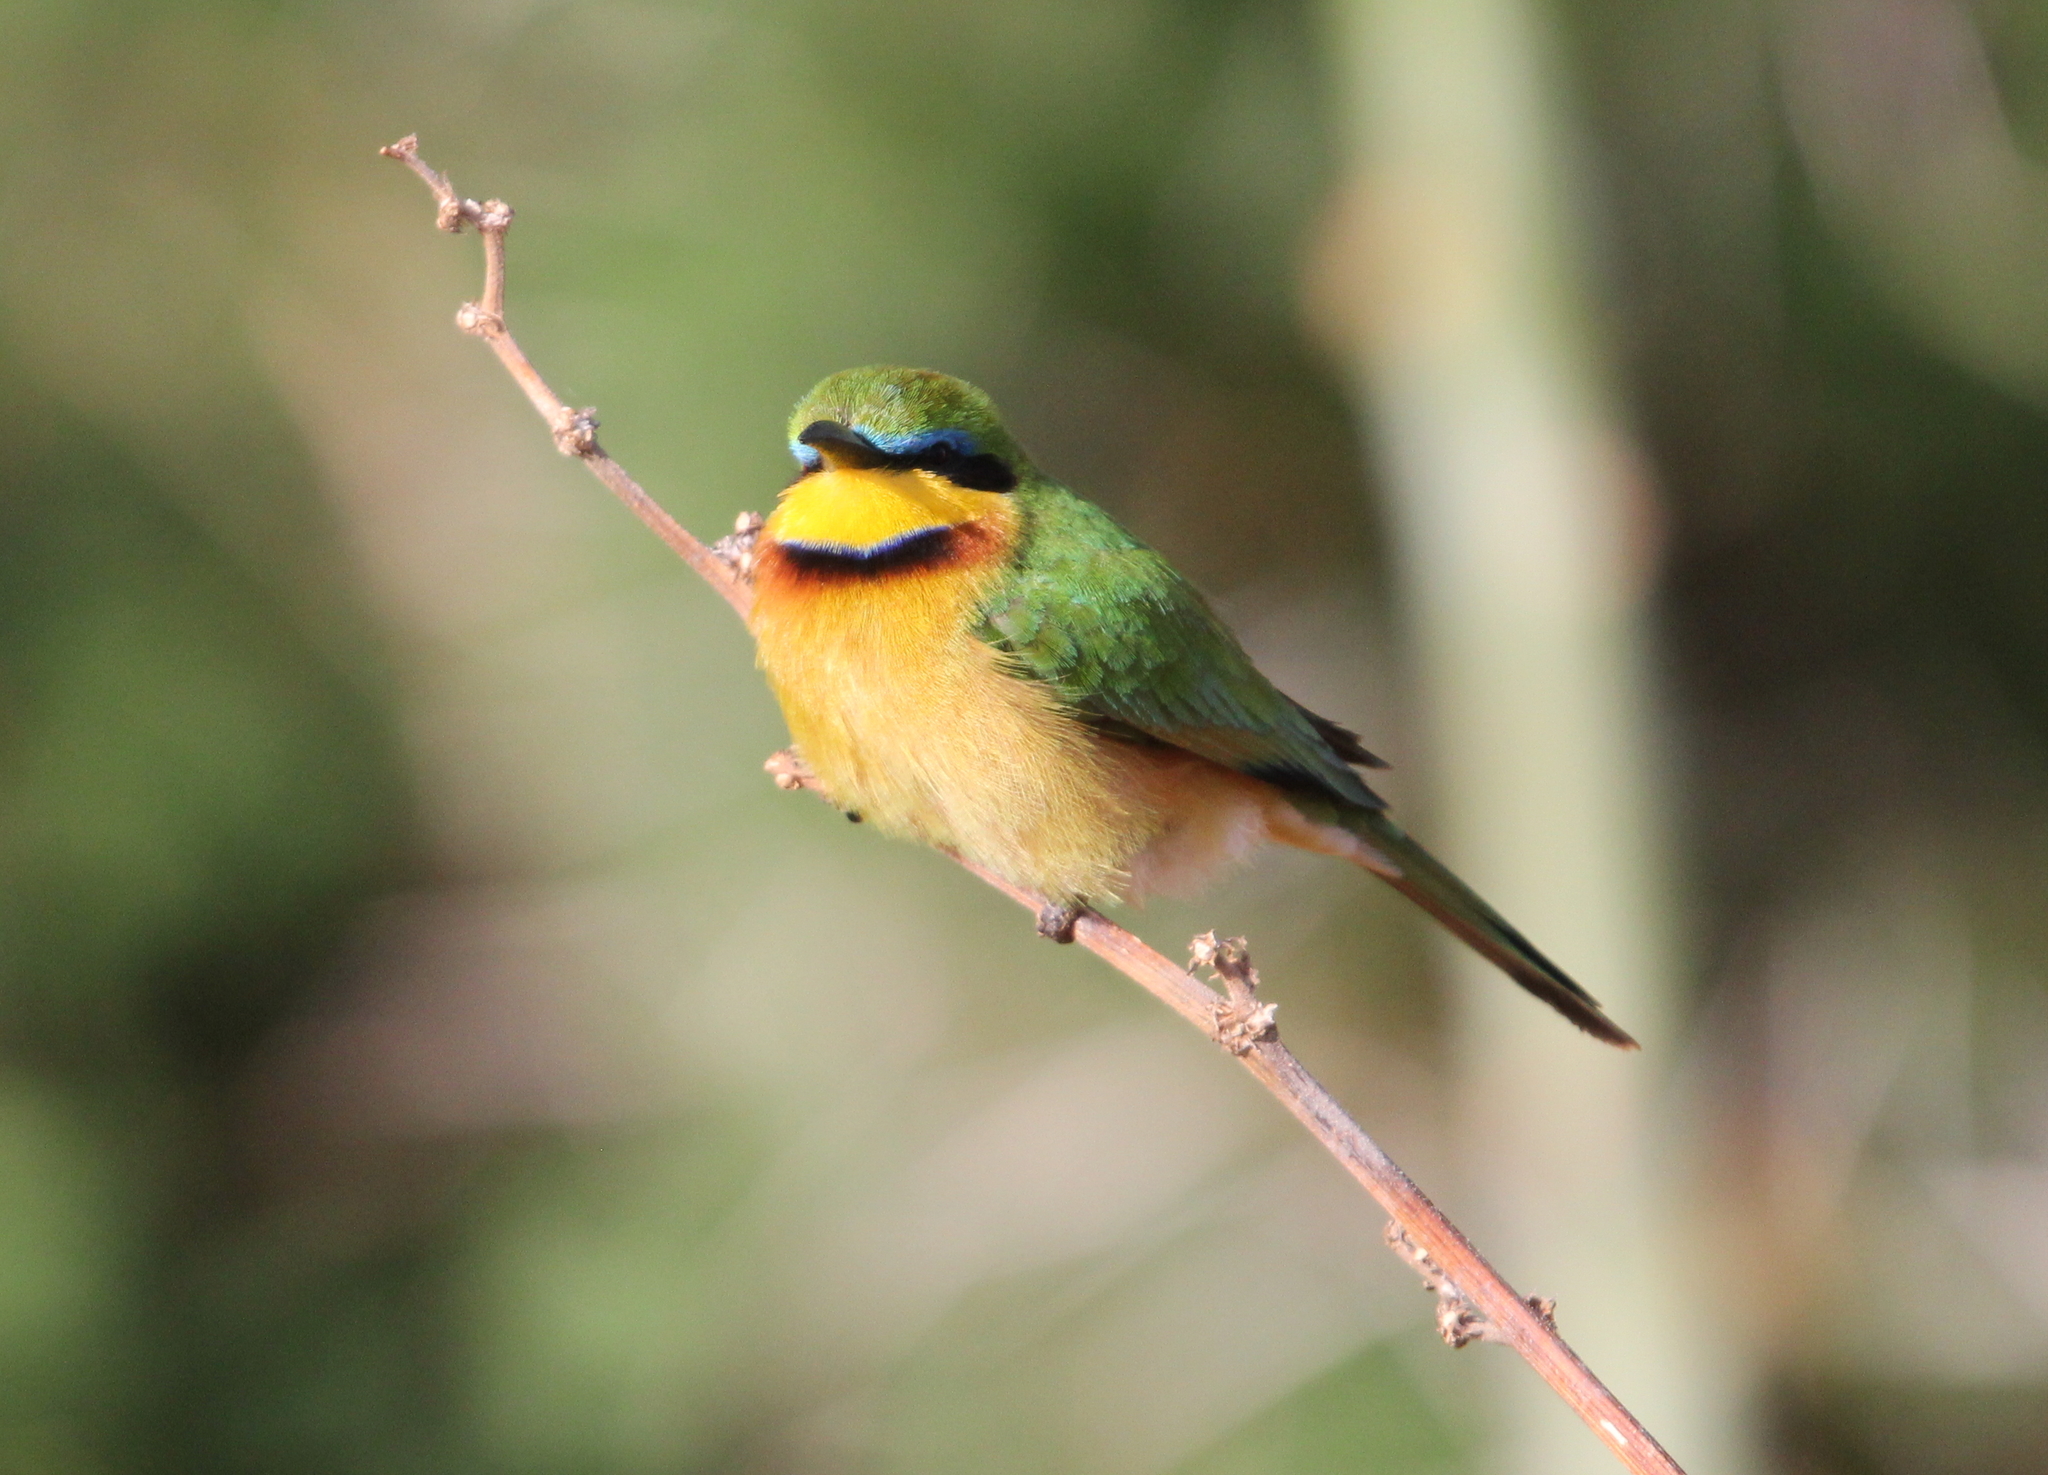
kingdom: Animalia
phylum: Chordata
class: Aves
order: Coraciiformes
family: Meropidae
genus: Merops
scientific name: Merops pusillus
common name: Little bee-eater
